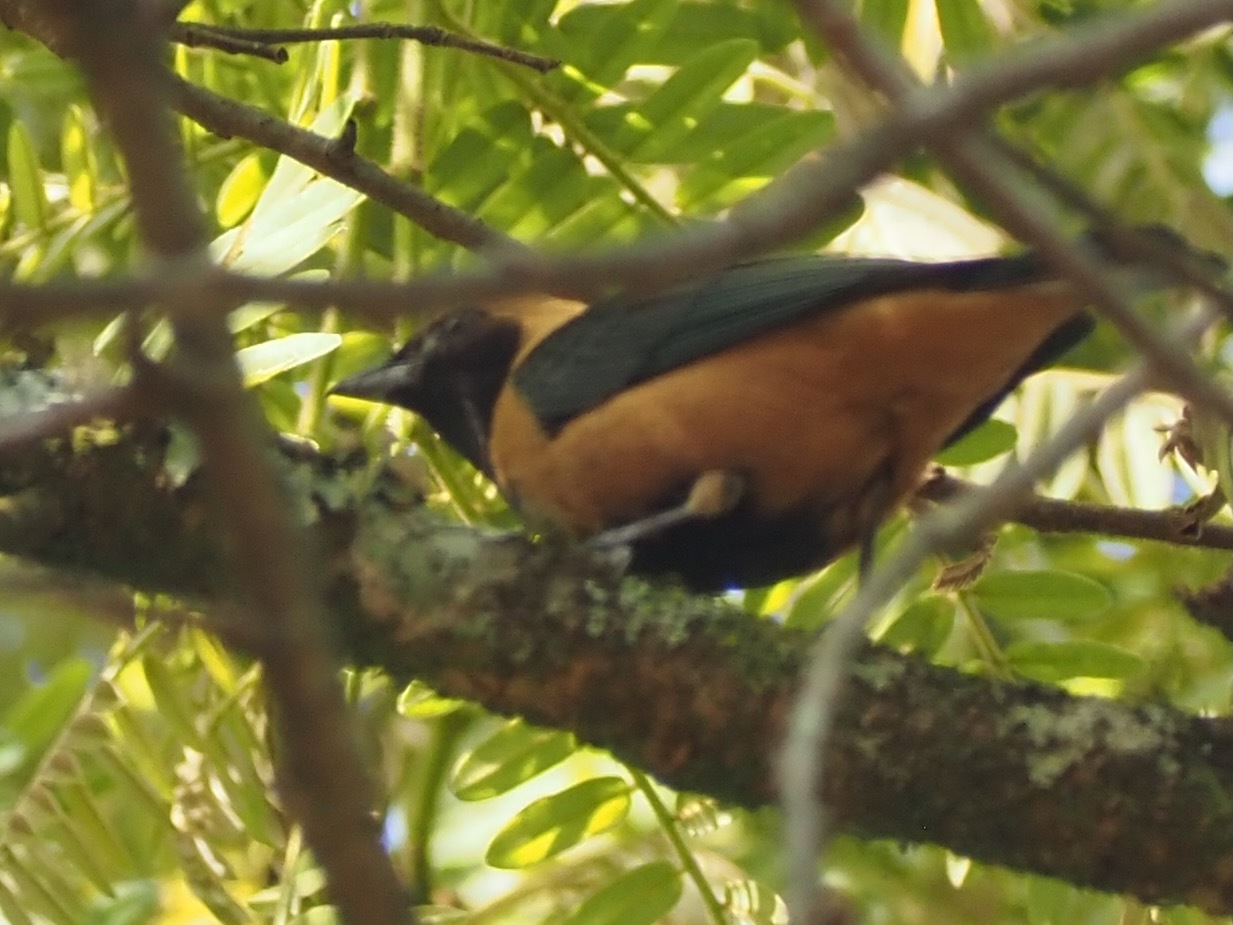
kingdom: Animalia
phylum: Chordata
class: Aves
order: Passeriformes
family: Thraupidae
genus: Stilpnia
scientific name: Stilpnia cayana
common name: Burnished-buff tanager
